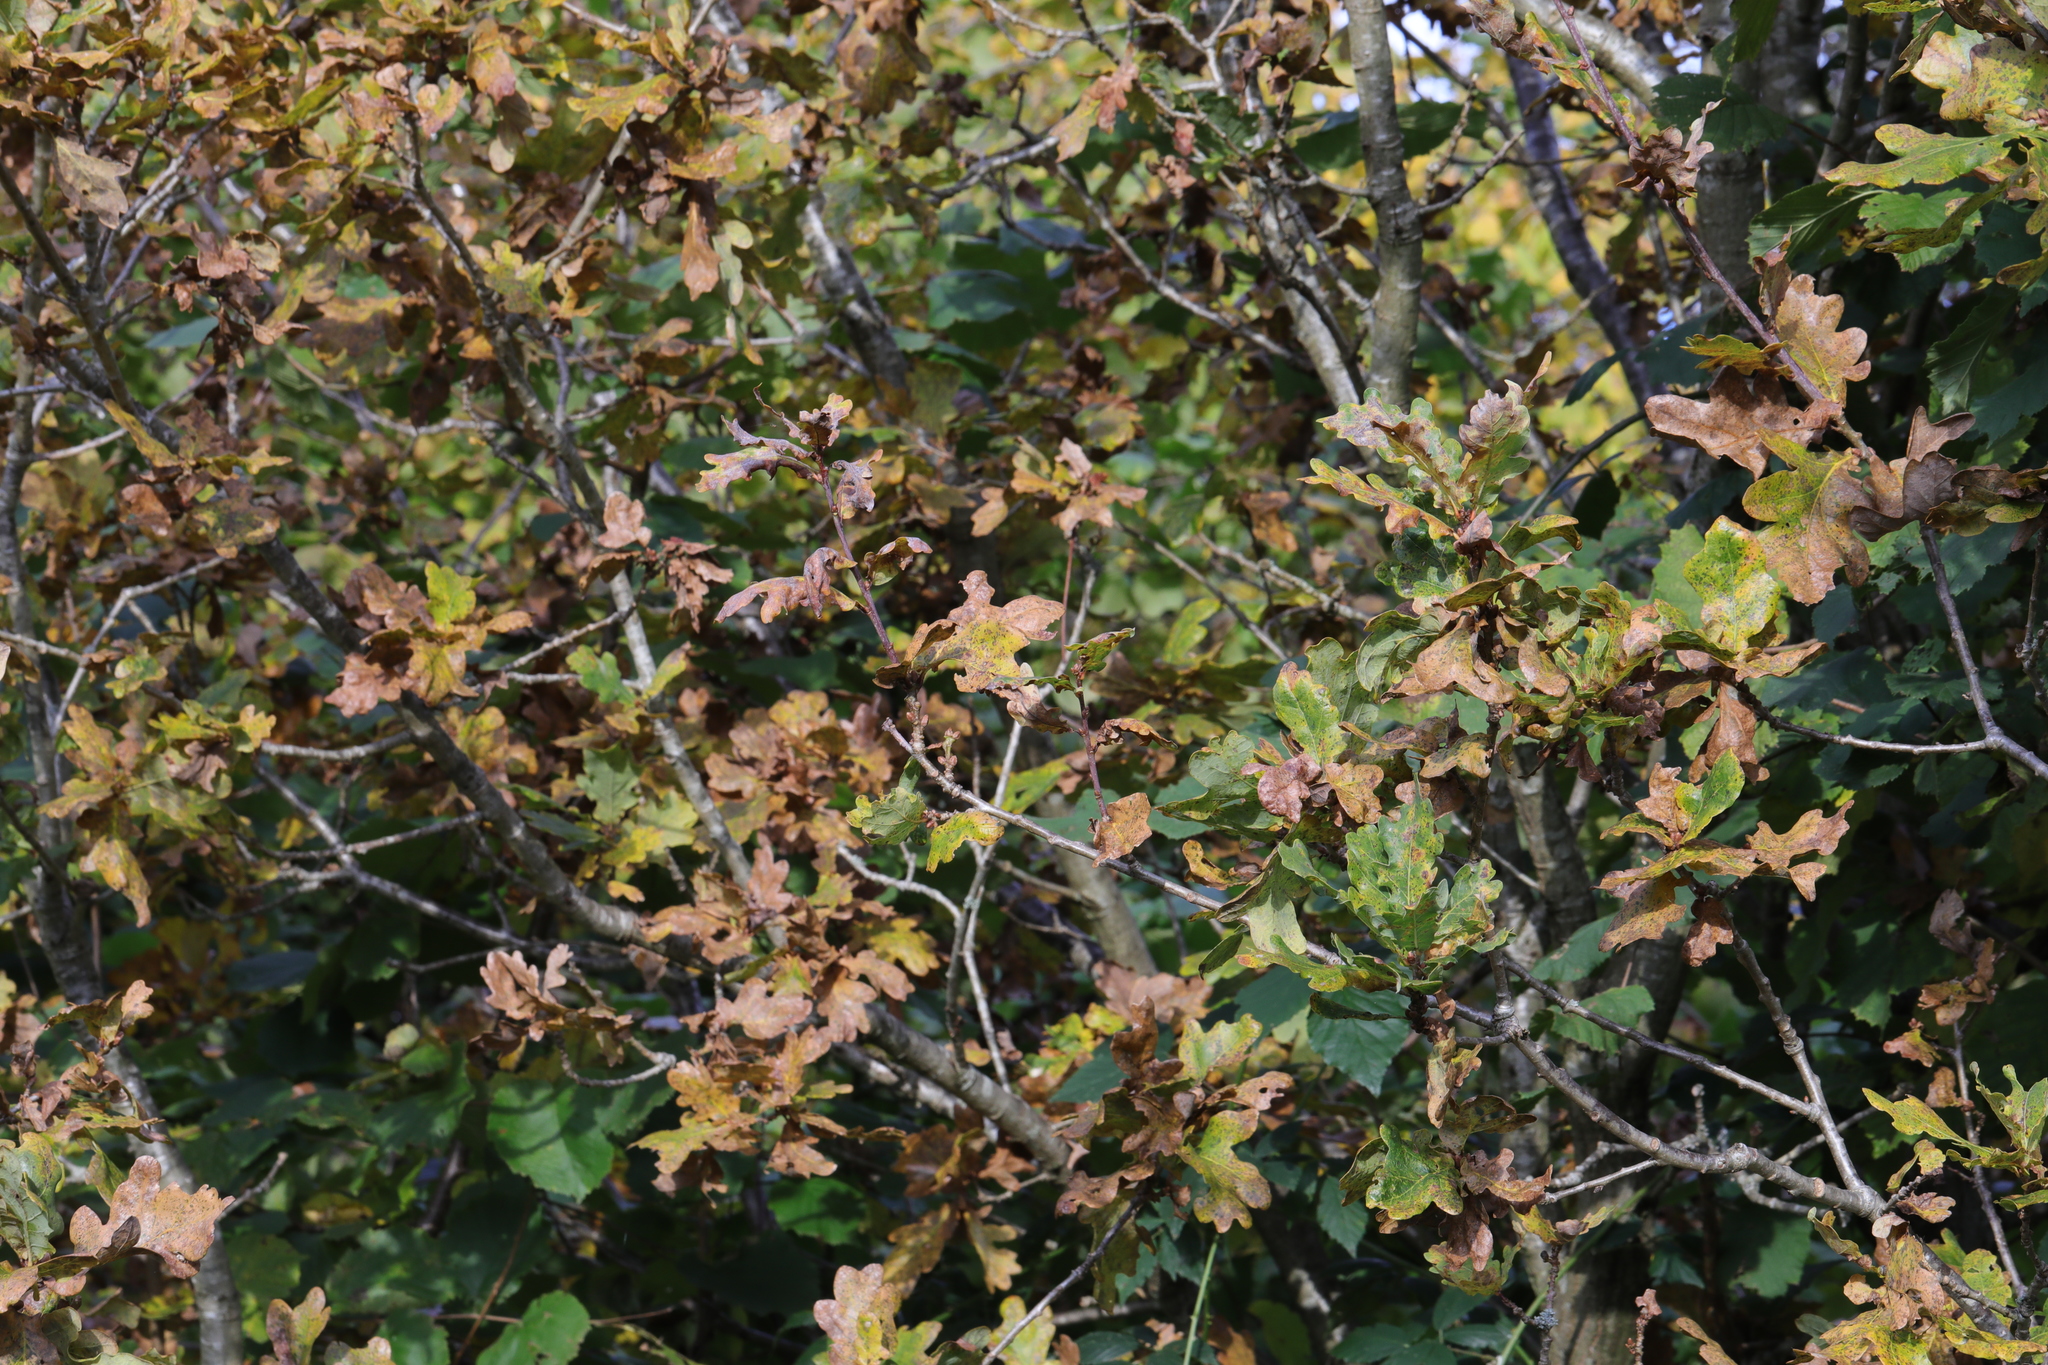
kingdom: Plantae
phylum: Tracheophyta
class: Magnoliopsida
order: Fagales
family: Fagaceae
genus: Quercus
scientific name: Quercus robur
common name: Pedunculate oak
